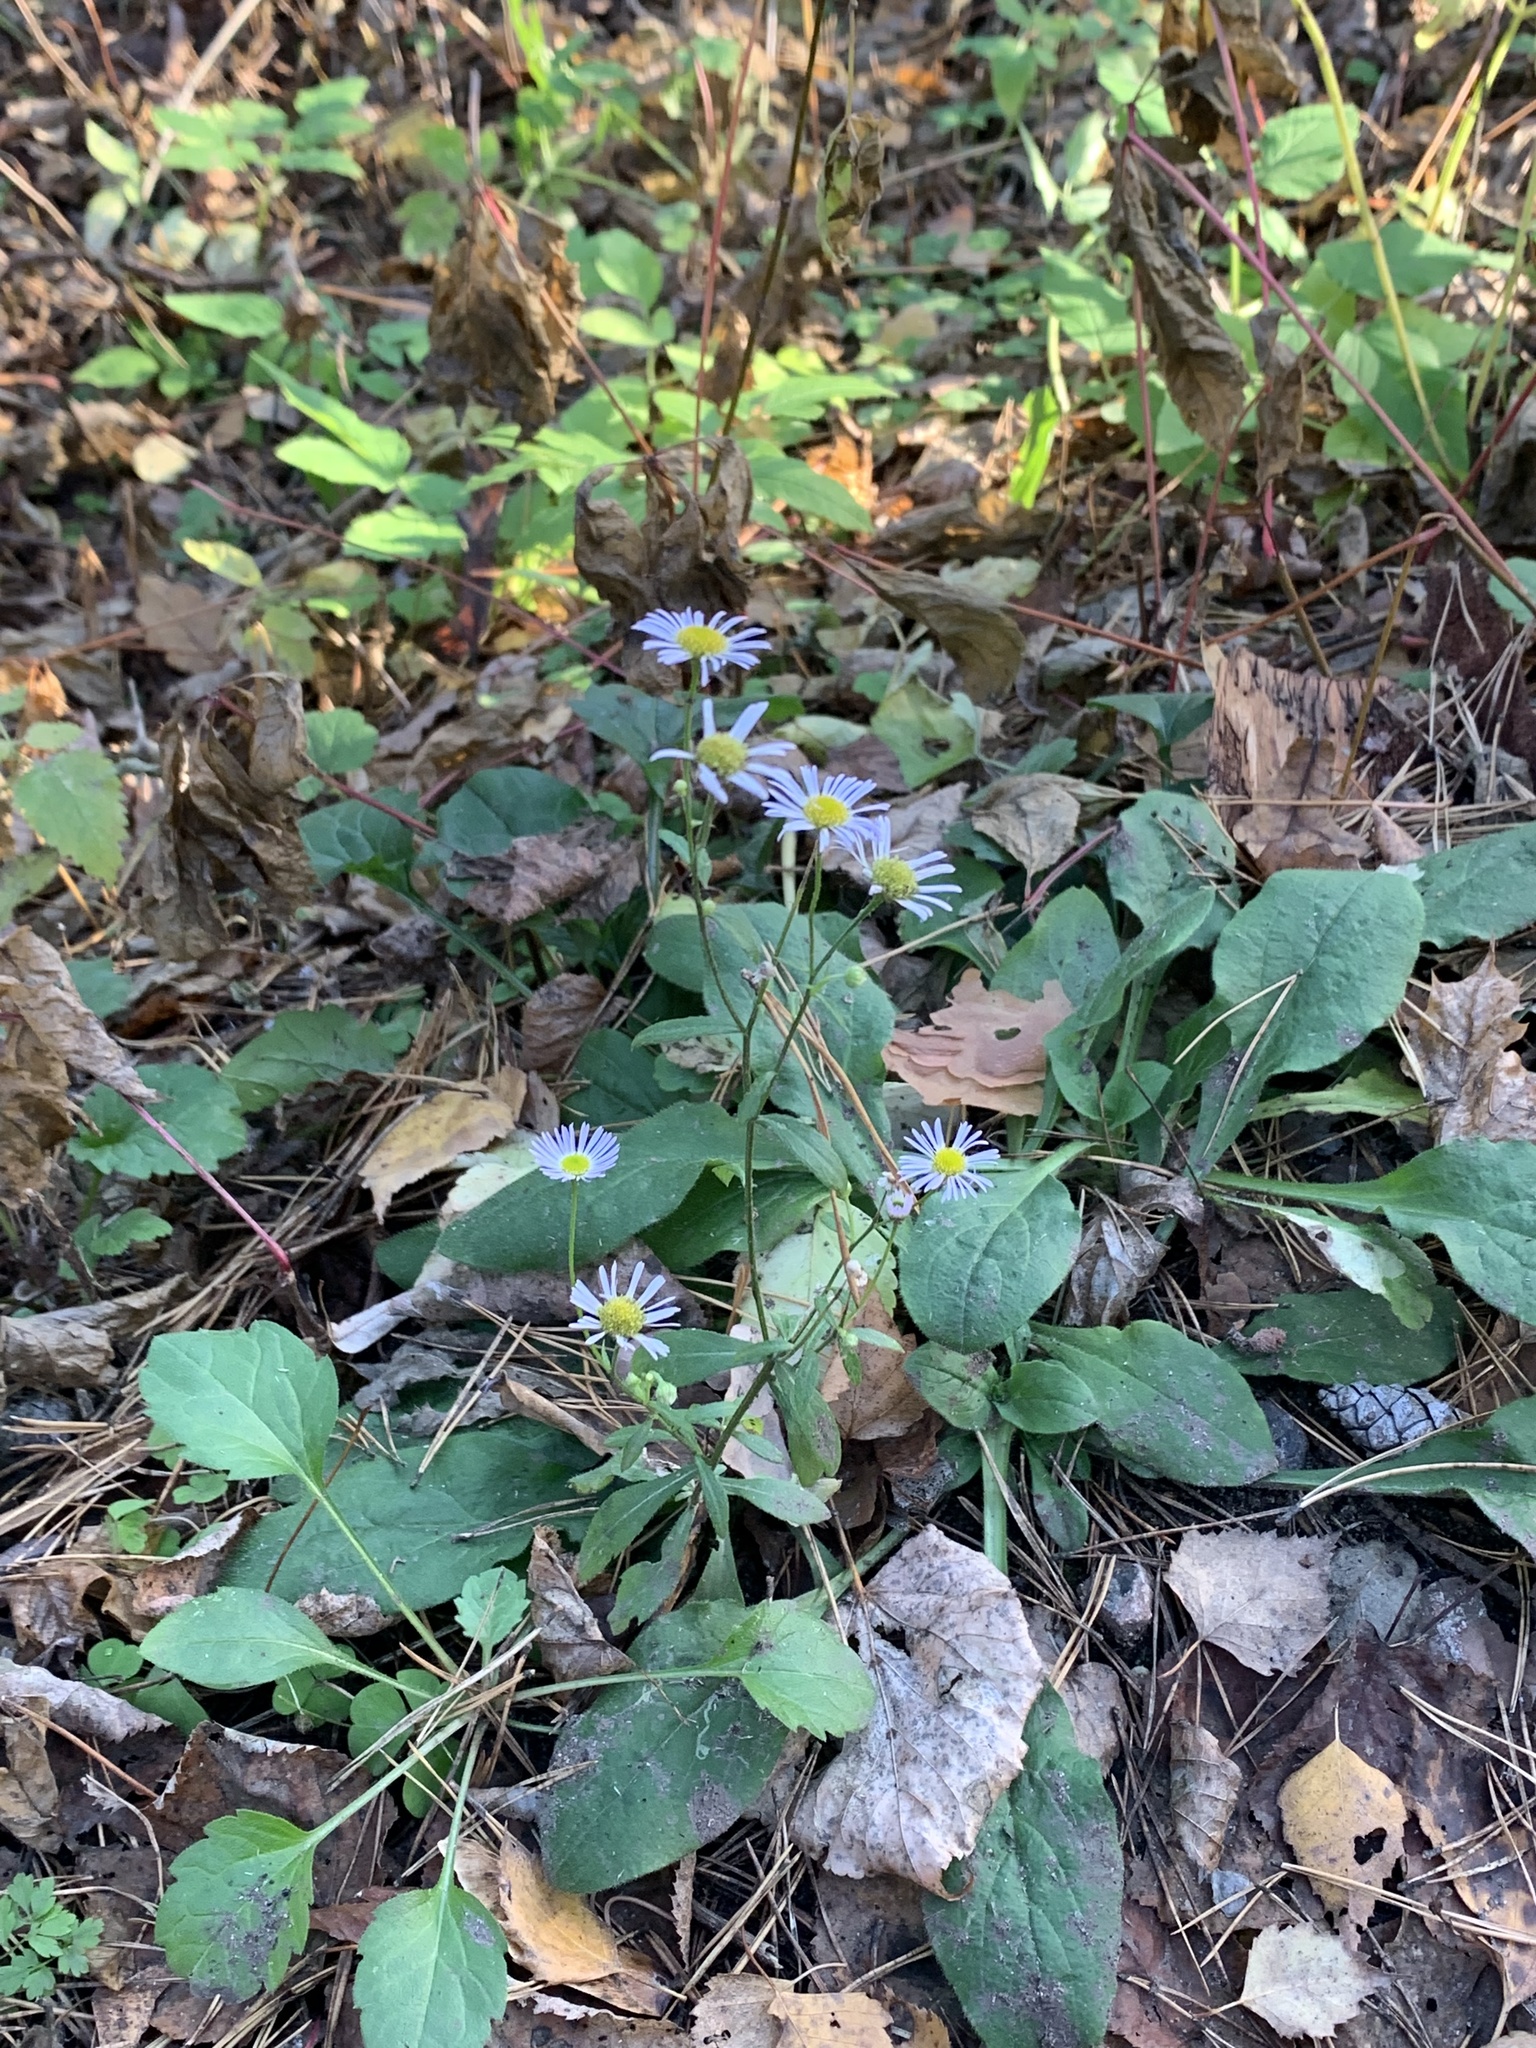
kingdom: Plantae
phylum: Tracheophyta
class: Magnoliopsida
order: Asterales
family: Asteraceae
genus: Erigeron
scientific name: Erigeron annuus
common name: Tall fleabane
